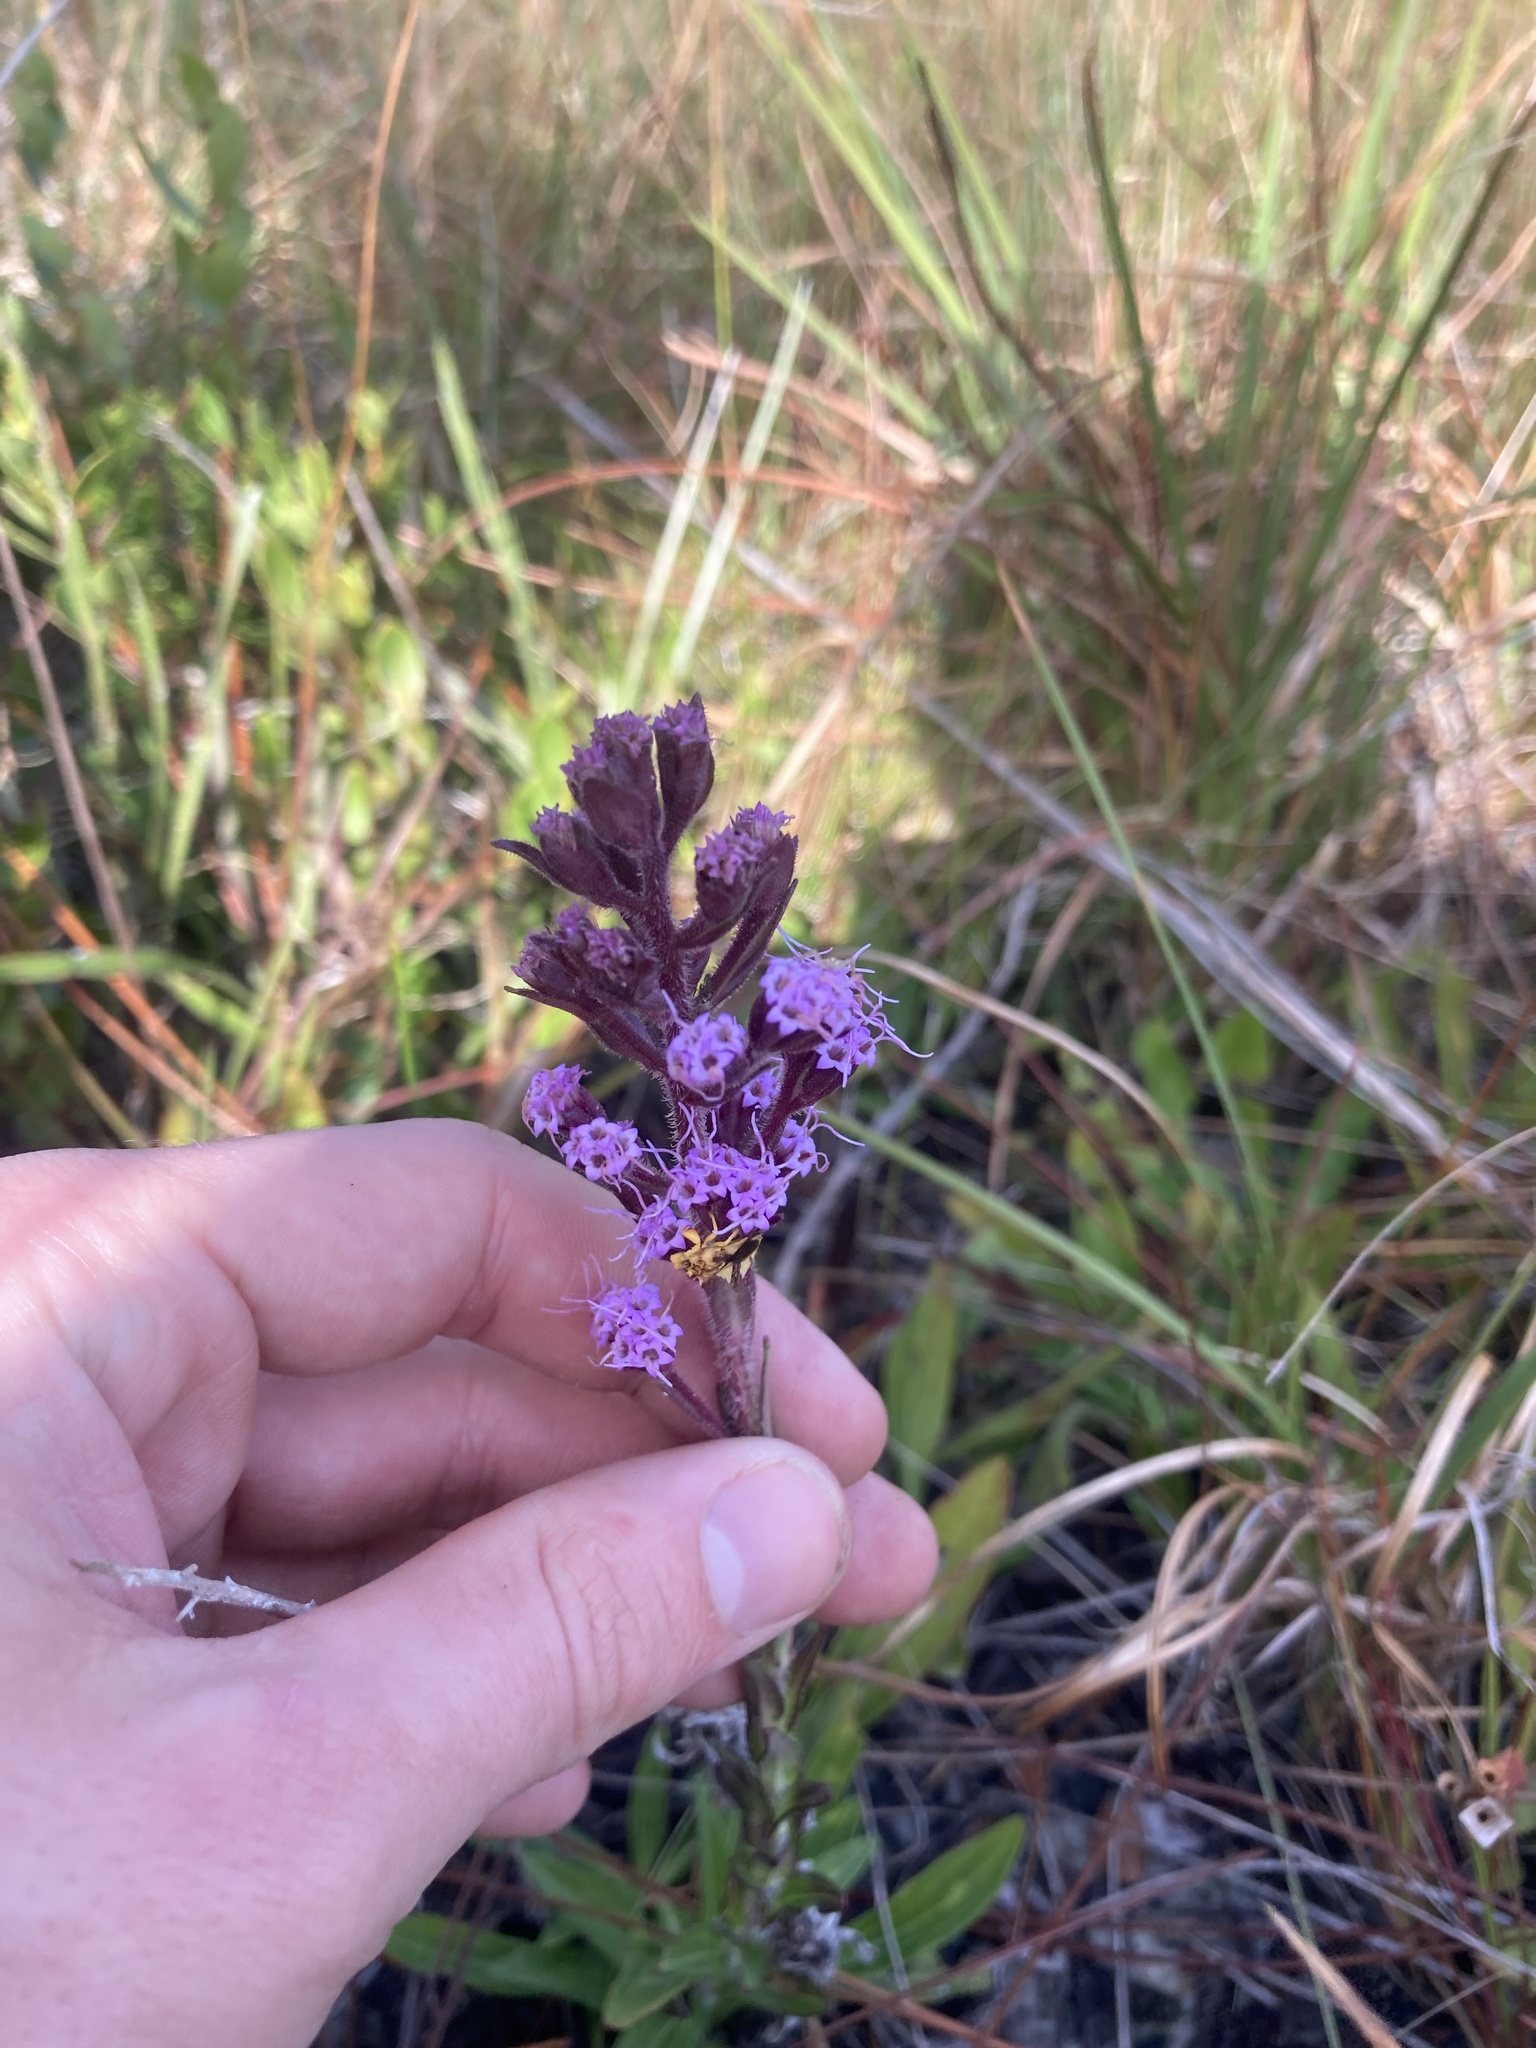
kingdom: Plantae
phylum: Tracheophyta
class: Magnoliopsida
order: Asterales
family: Asteraceae
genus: Carphephorus
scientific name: Carphephorus paniculatus
